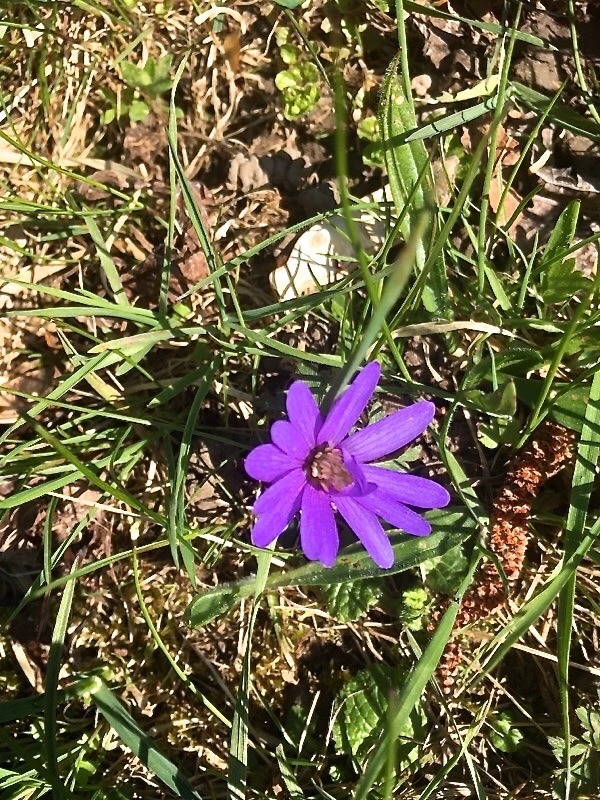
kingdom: Plantae
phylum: Tracheophyta
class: Magnoliopsida
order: Ranunculales
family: Ranunculaceae
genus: Anemone
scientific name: Anemone blanda
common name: Balkan anemone
